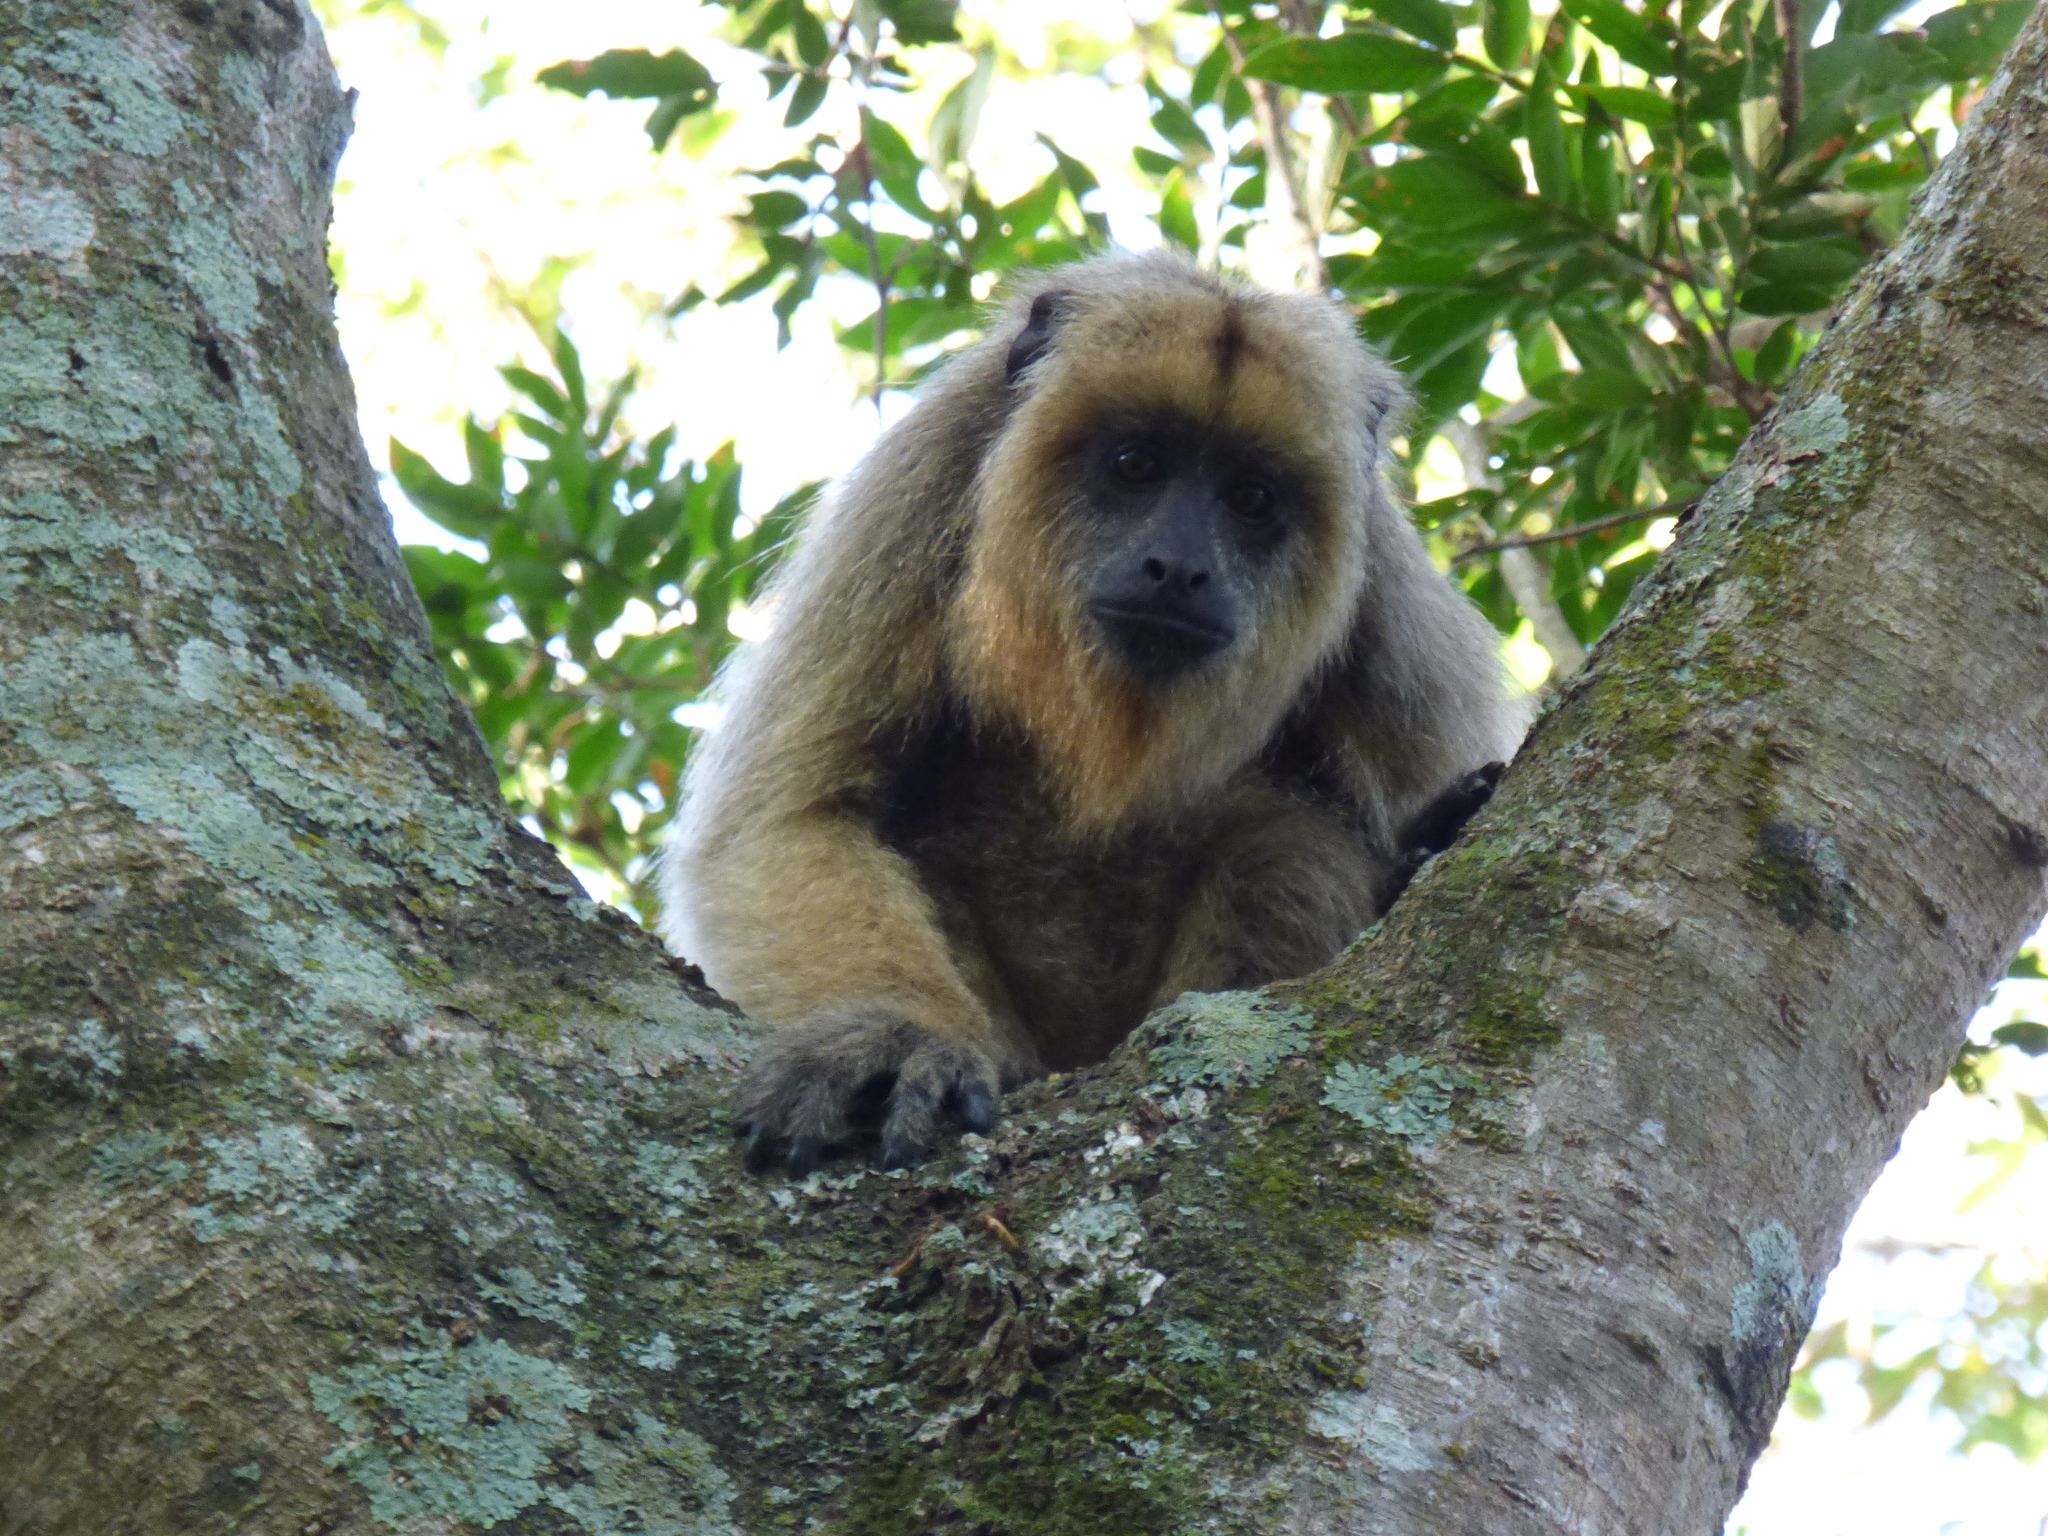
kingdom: Animalia
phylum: Chordata
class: Mammalia
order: Primates
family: Atelidae
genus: Alouatta
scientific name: Alouatta caraya
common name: Black howler
